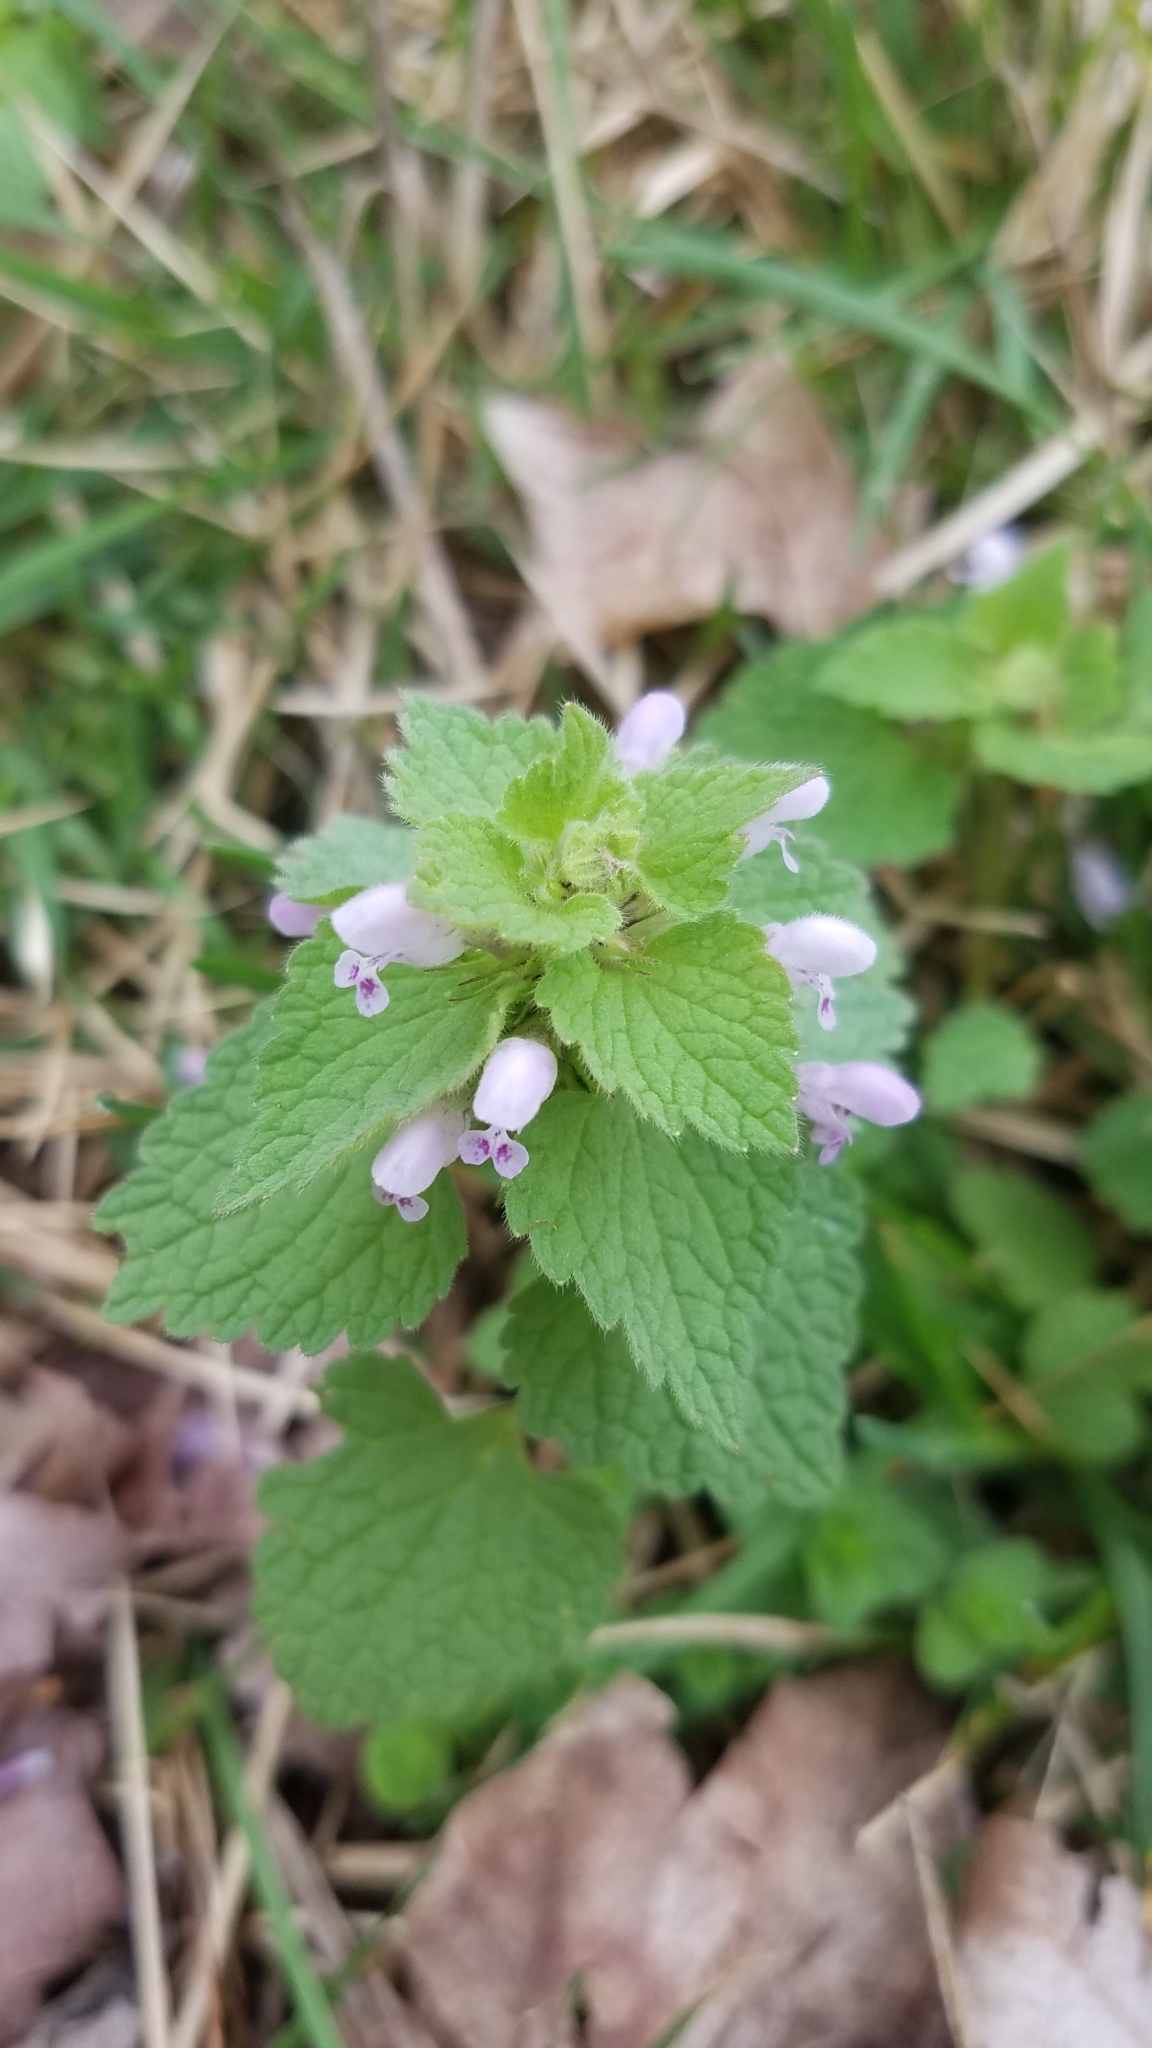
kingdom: Plantae
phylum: Tracheophyta
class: Magnoliopsida
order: Lamiales
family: Lamiaceae
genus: Lamium
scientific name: Lamium purpureum
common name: Red dead-nettle
